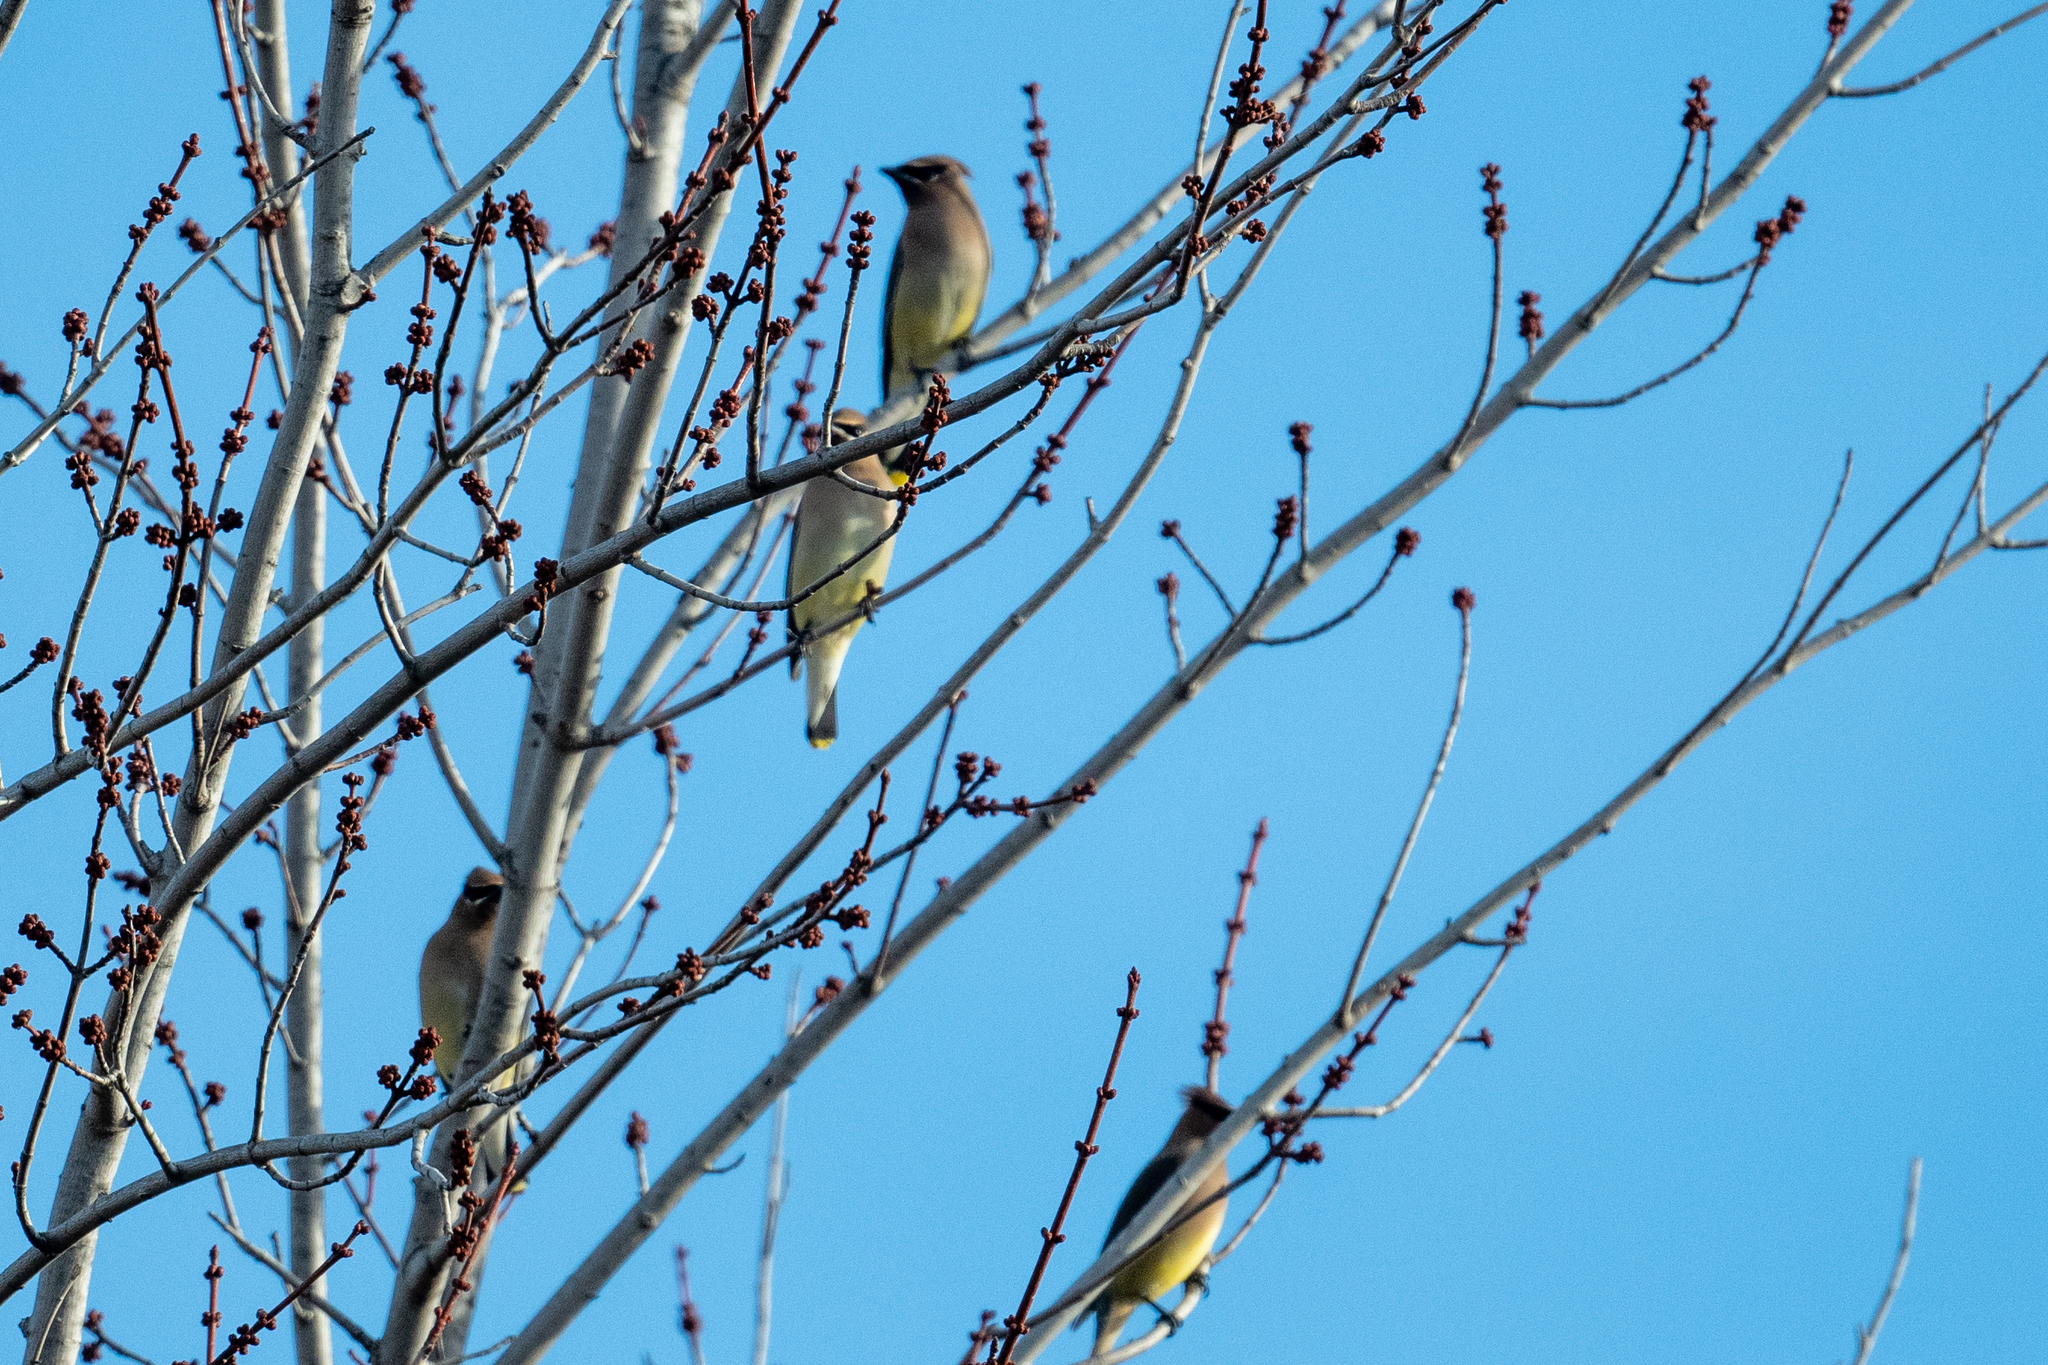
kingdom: Animalia
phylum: Chordata
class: Aves
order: Passeriformes
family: Bombycillidae
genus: Bombycilla
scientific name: Bombycilla cedrorum
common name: Cedar waxwing
